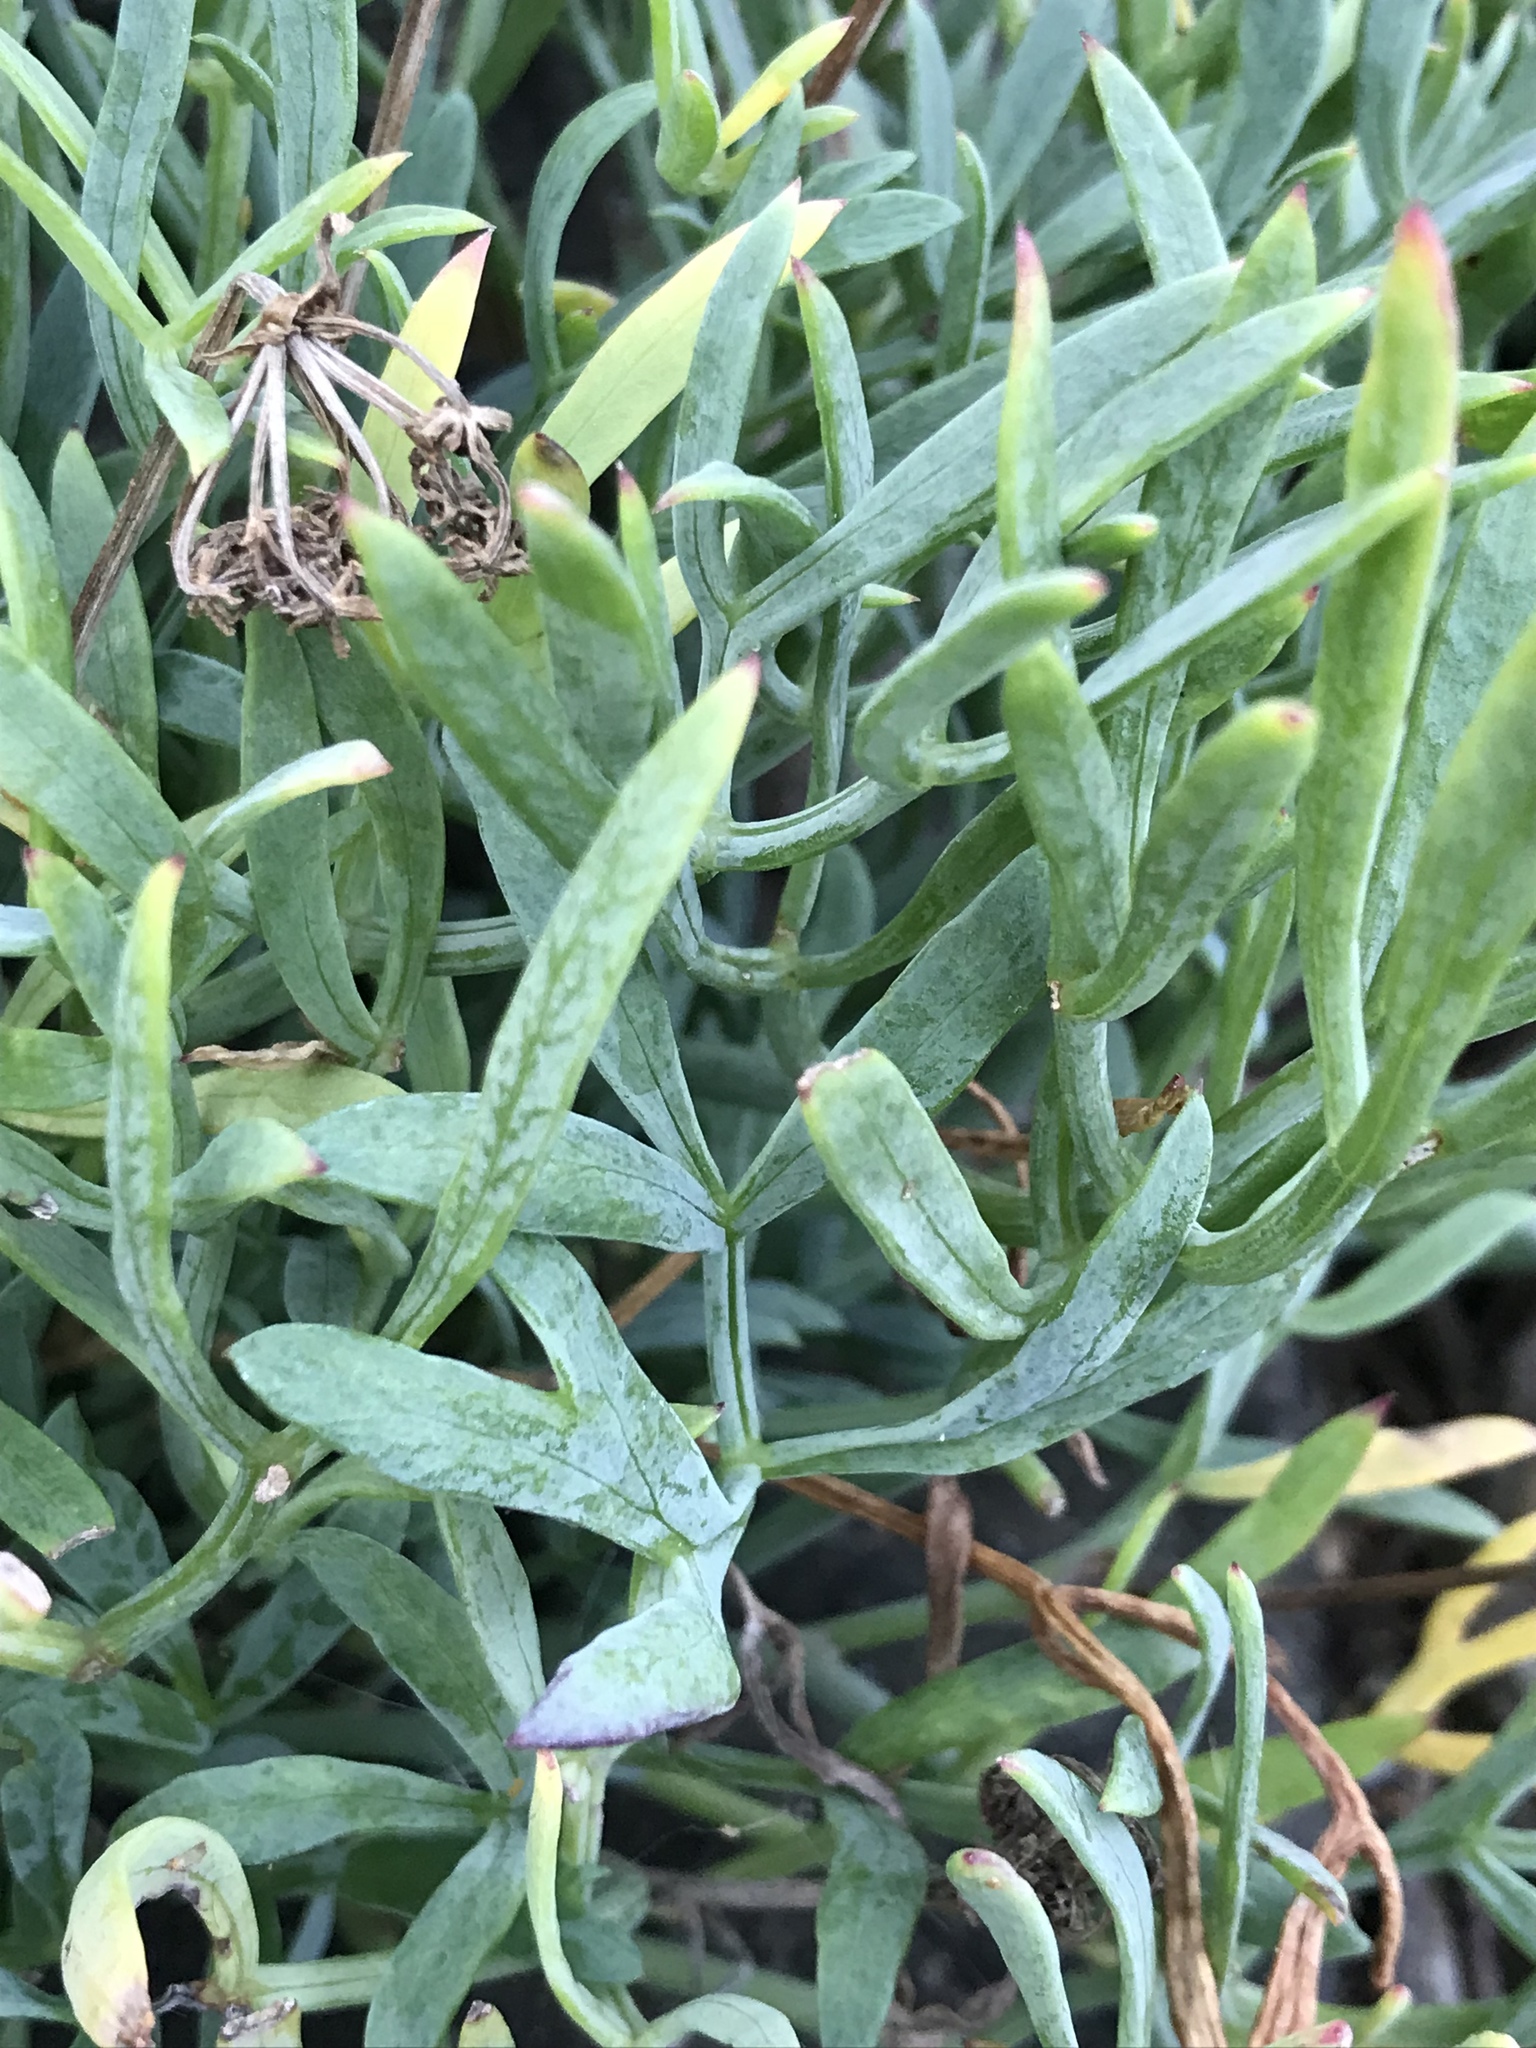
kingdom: Plantae
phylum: Tracheophyta
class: Magnoliopsida
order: Apiales
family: Apiaceae
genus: Crithmum
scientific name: Crithmum maritimum
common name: Rock samphire
